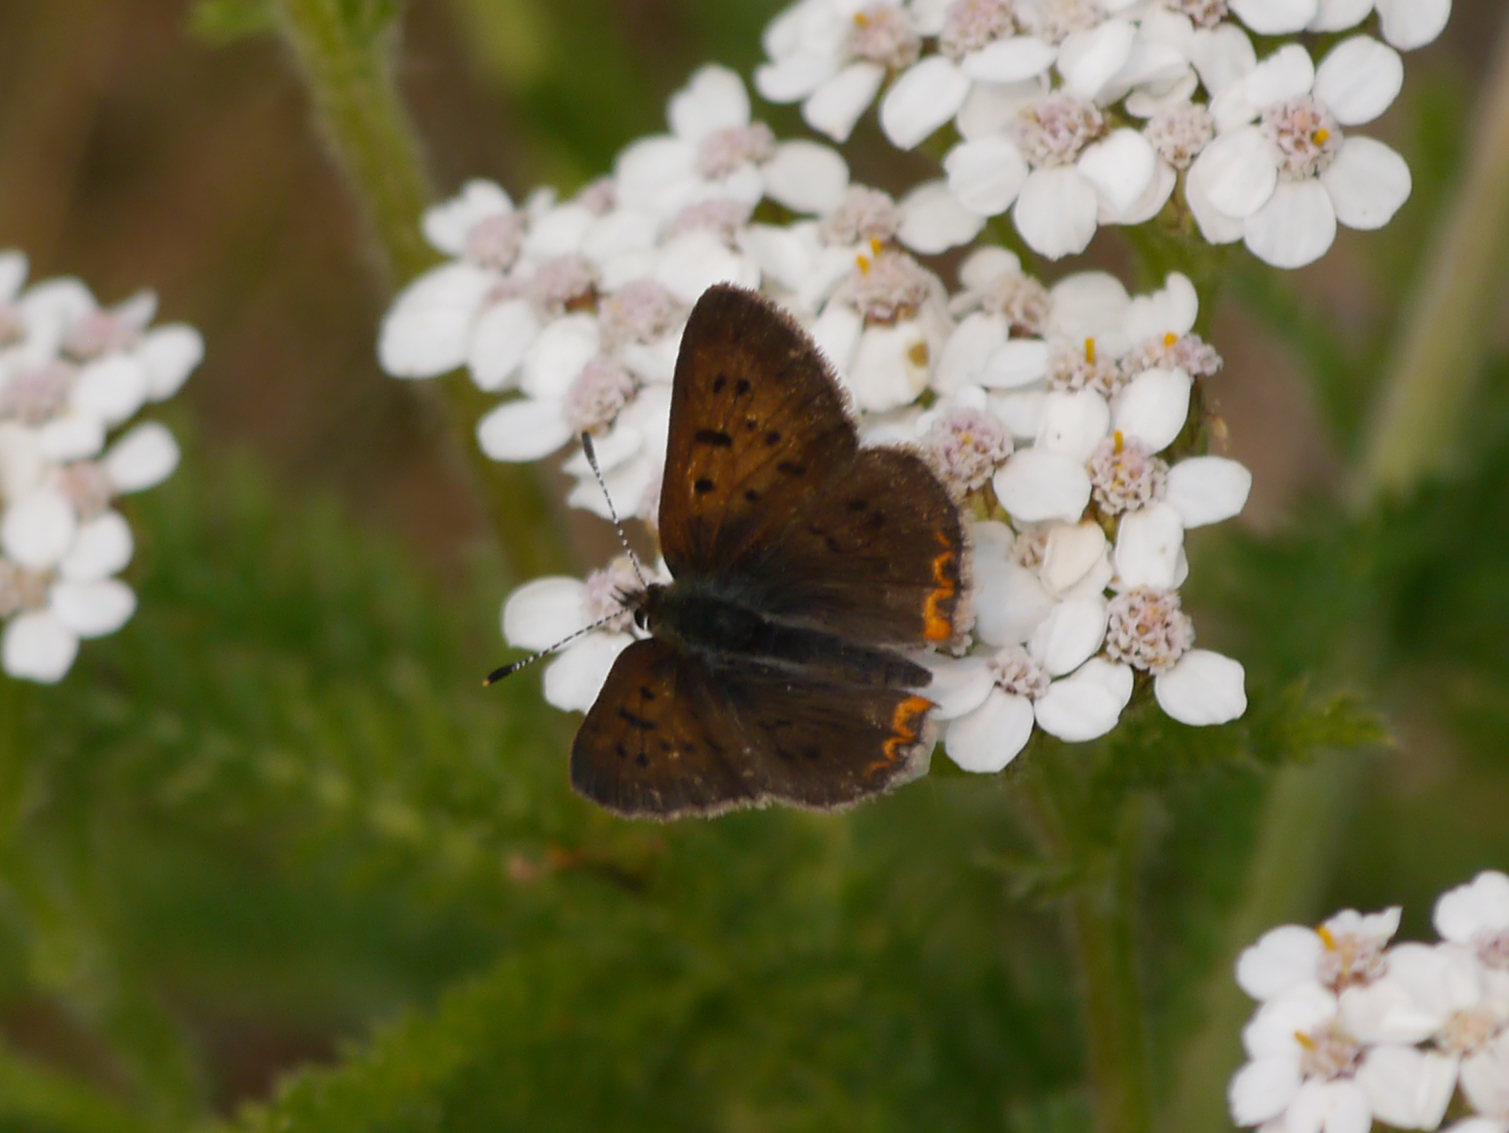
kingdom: Animalia
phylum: Arthropoda
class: Insecta
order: Lepidoptera
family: Lycaenidae
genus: Tharsalea
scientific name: Tharsalea dorcas
